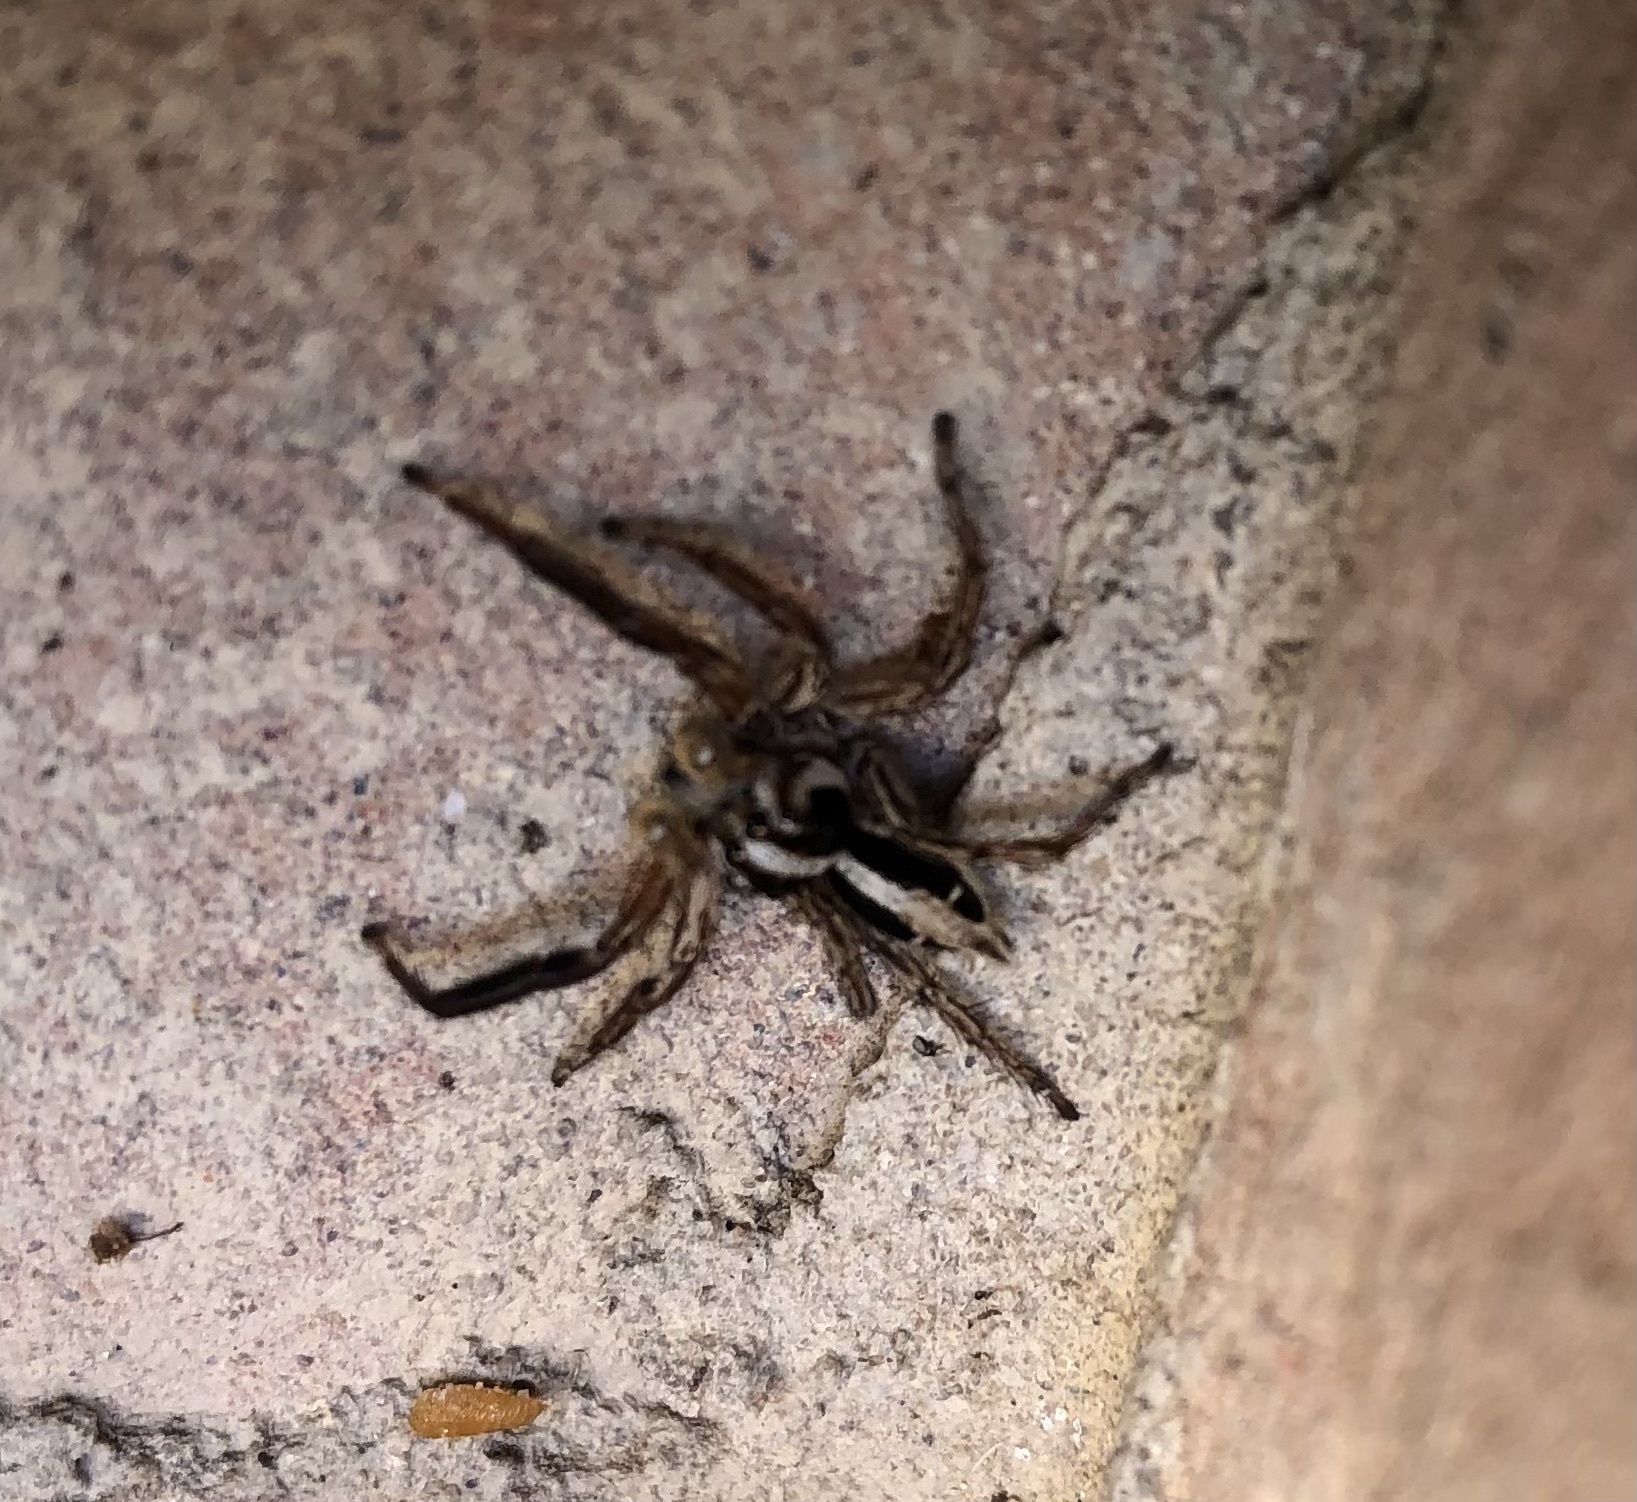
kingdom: Animalia
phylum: Arthropoda
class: Arachnida
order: Araneae
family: Salticidae
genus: Plexippus
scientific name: Plexippus paykulli
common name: Pantropical jumper
